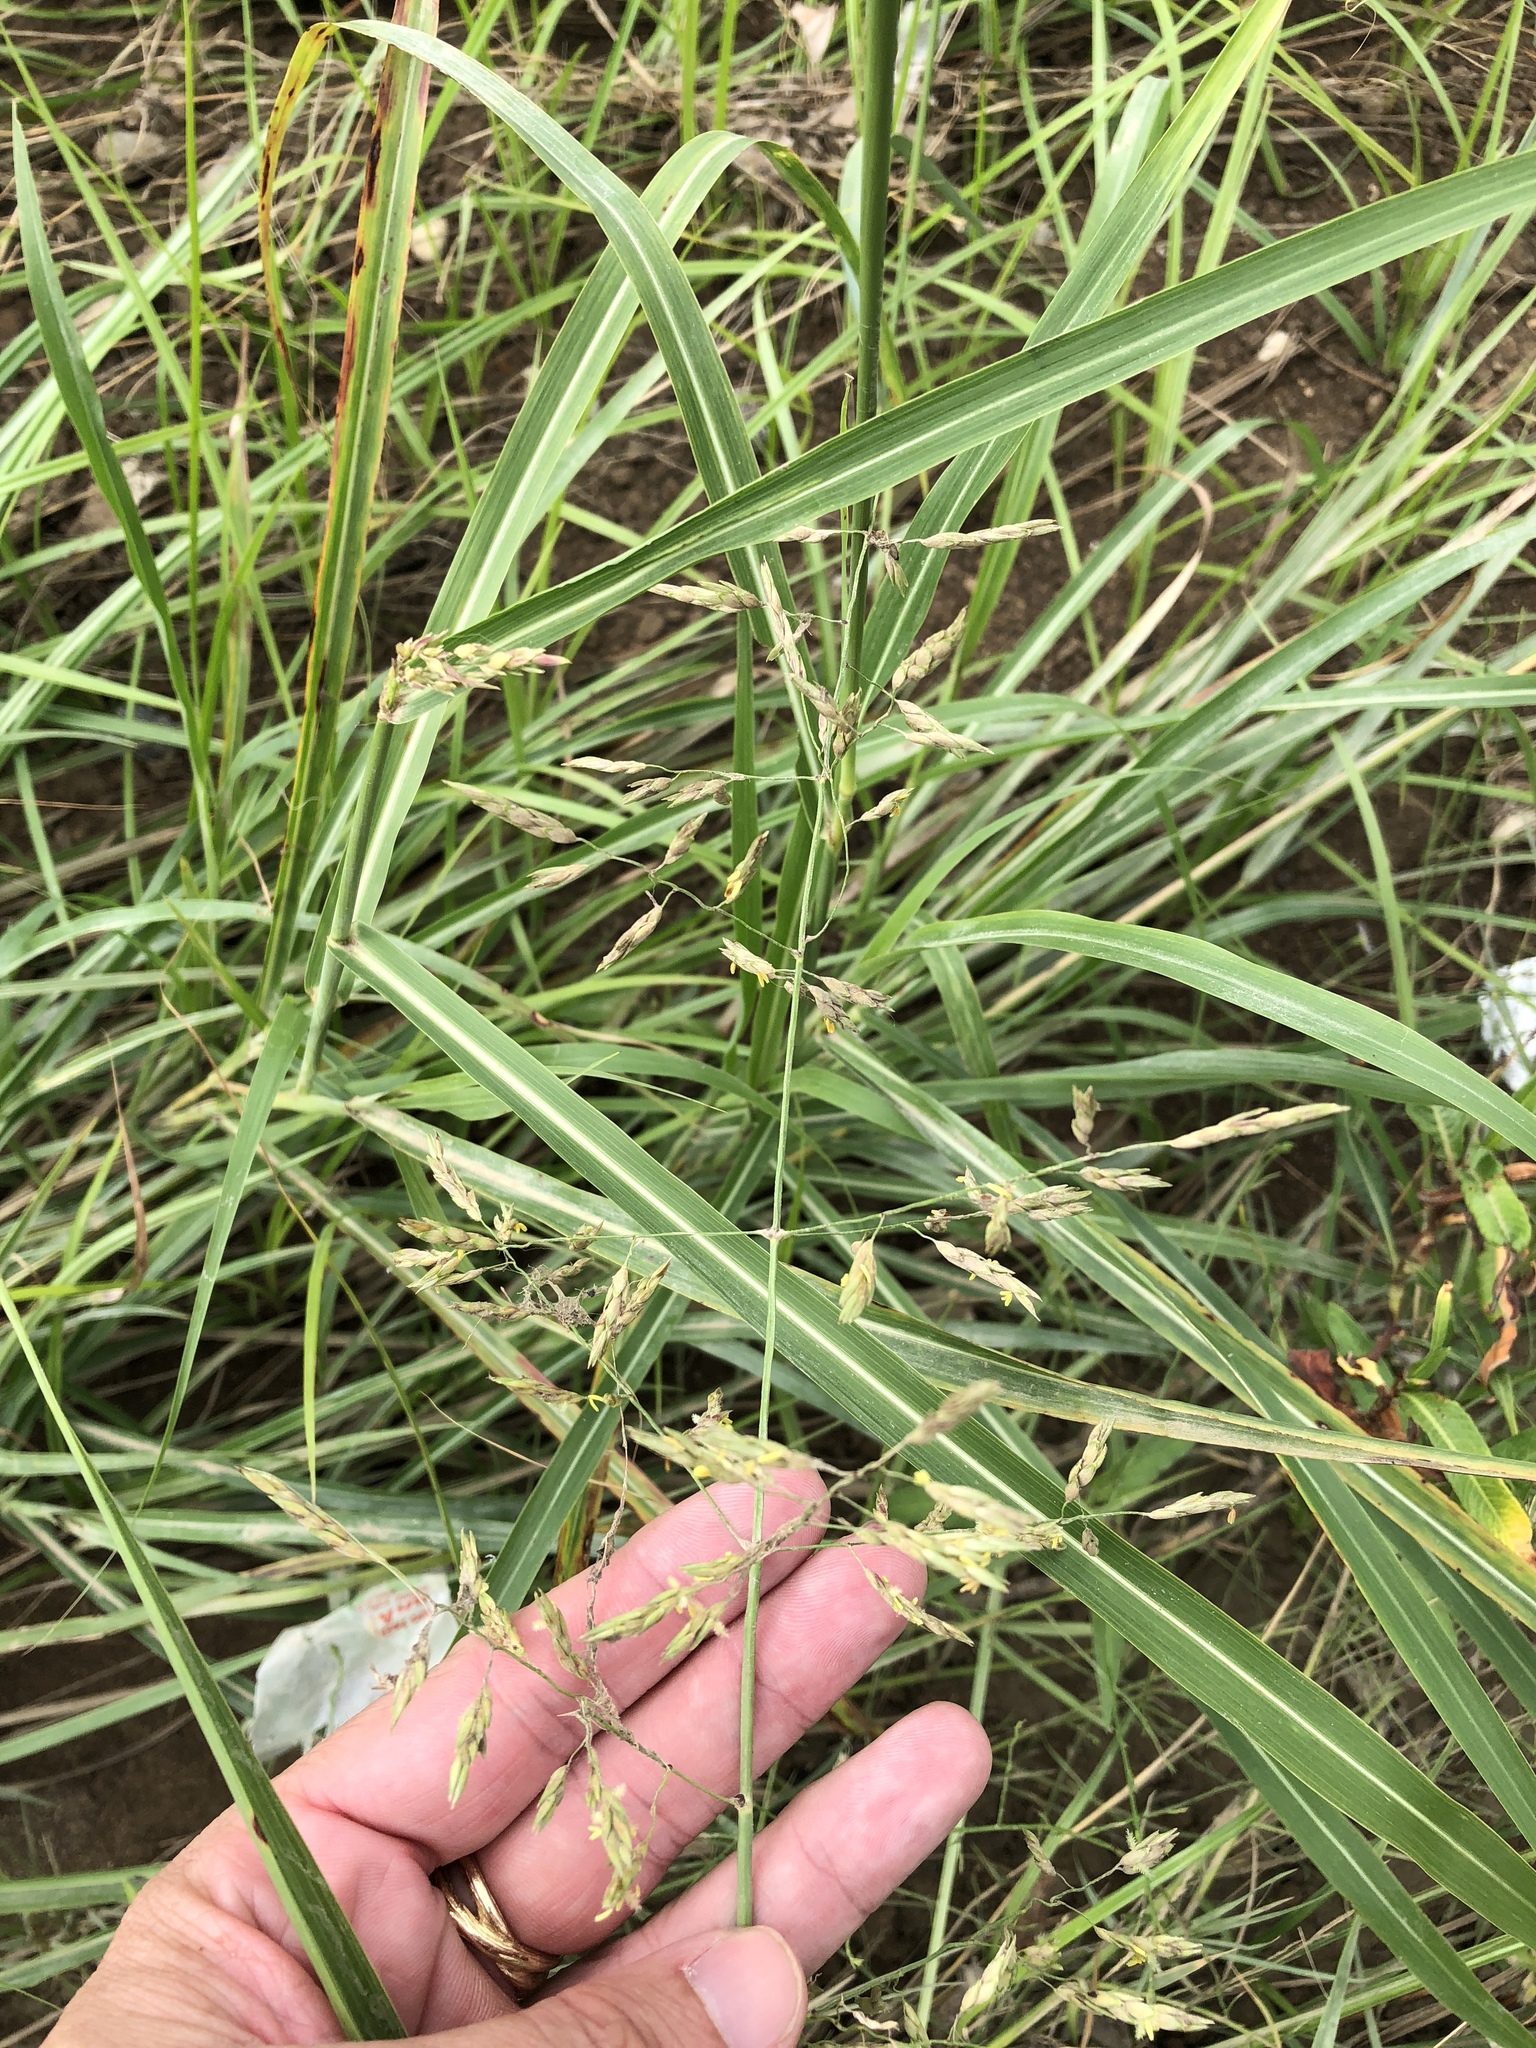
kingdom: Plantae
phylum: Tracheophyta
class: Liliopsida
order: Poales
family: Poaceae
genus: Sorghum
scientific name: Sorghum halepense
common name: Johnson-grass
